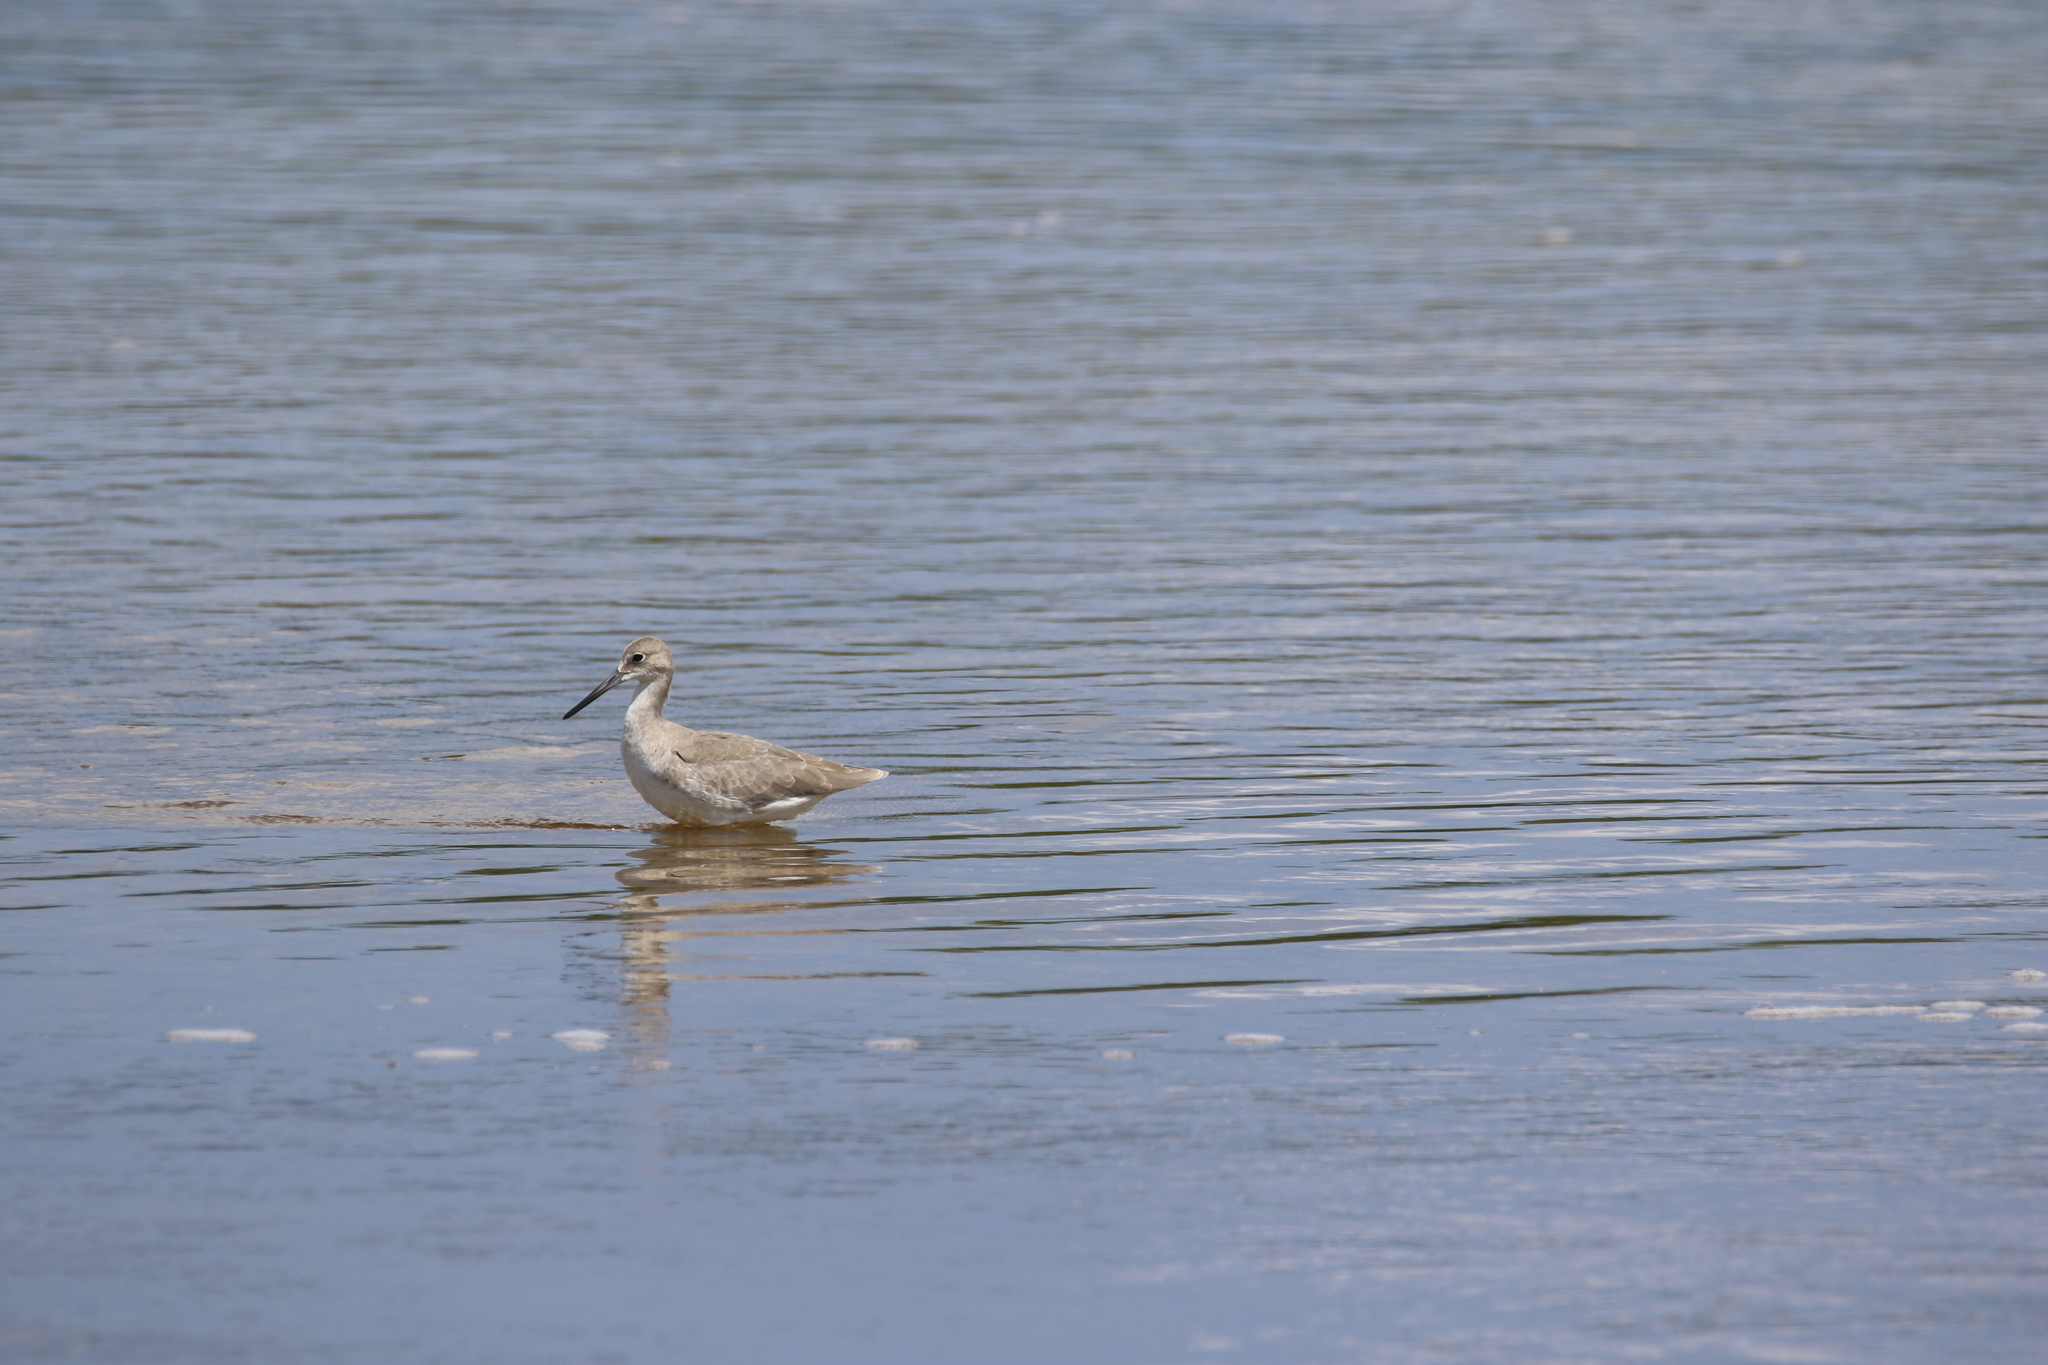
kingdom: Animalia
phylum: Chordata
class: Aves
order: Charadriiformes
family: Scolopacidae
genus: Tringa
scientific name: Tringa semipalmata
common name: Willet
